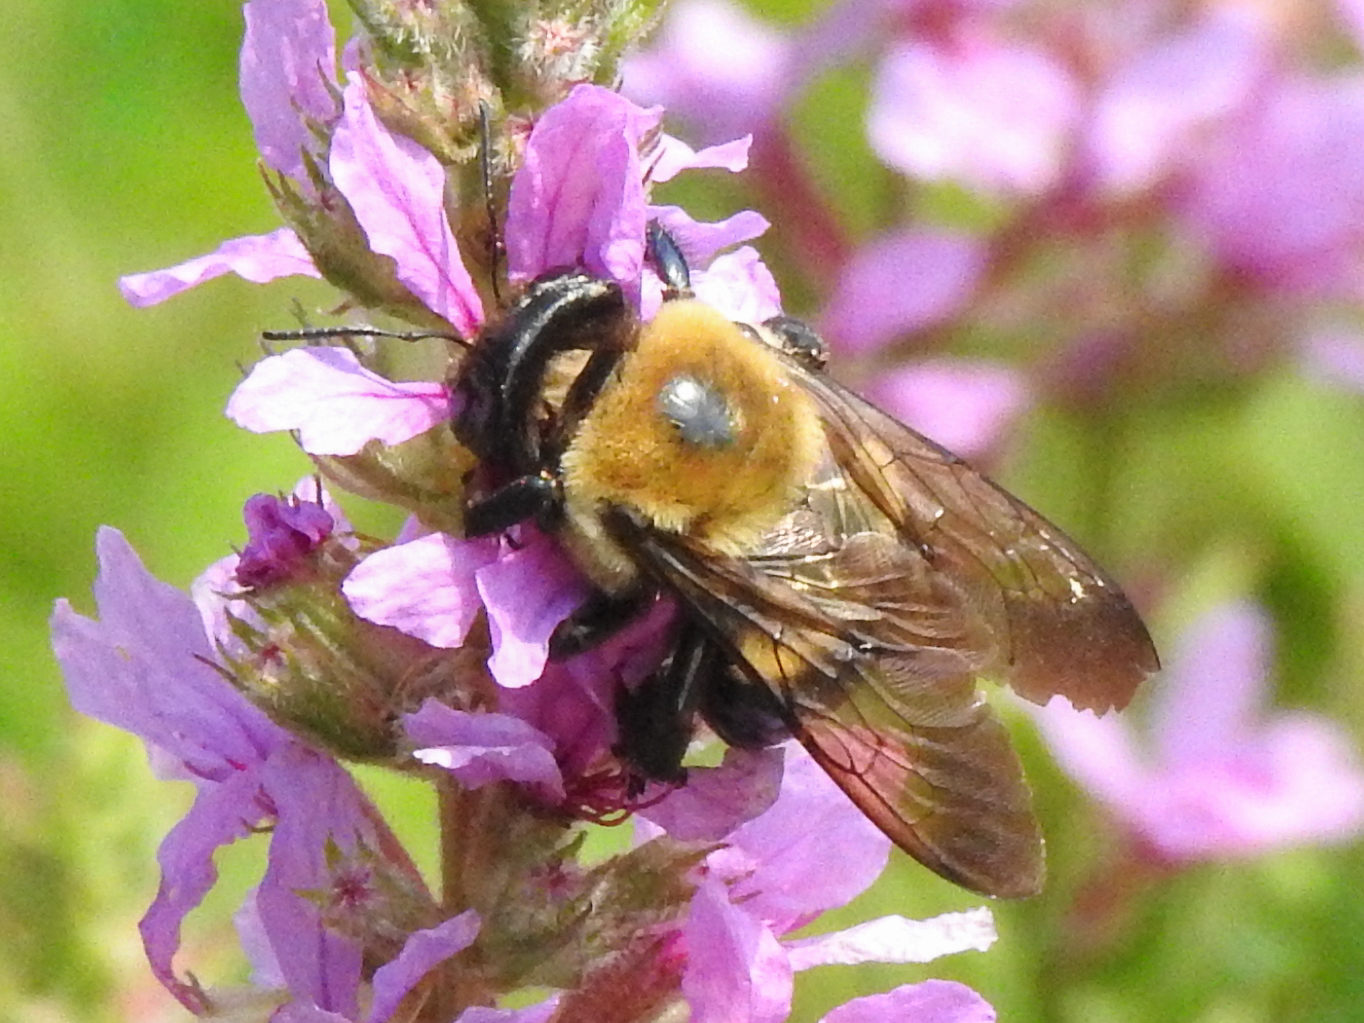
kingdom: Animalia
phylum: Arthropoda
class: Insecta
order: Hymenoptera
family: Apidae
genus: Xylocopa
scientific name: Xylocopa virginica
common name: Carpenter bee
